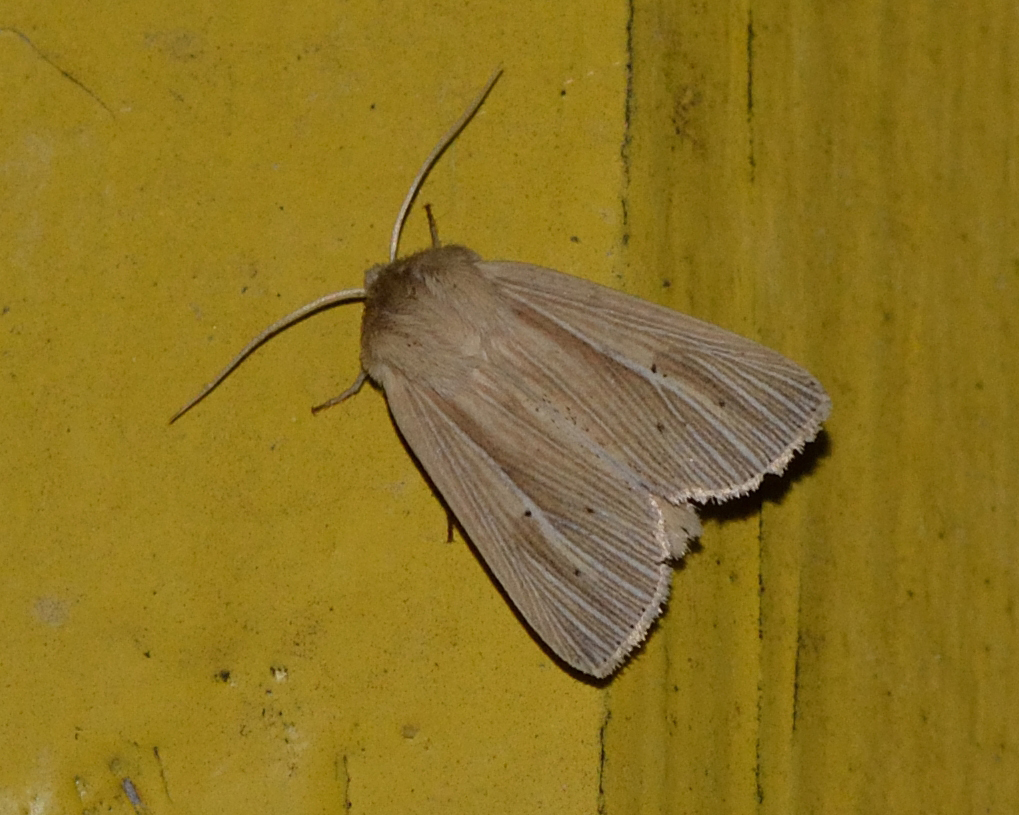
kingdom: Animalia
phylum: Arthropoda
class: Insecta
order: Lepidoptera
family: Noctuidae
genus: Mythimna
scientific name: Mythimna impura
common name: Smoky wainscot
